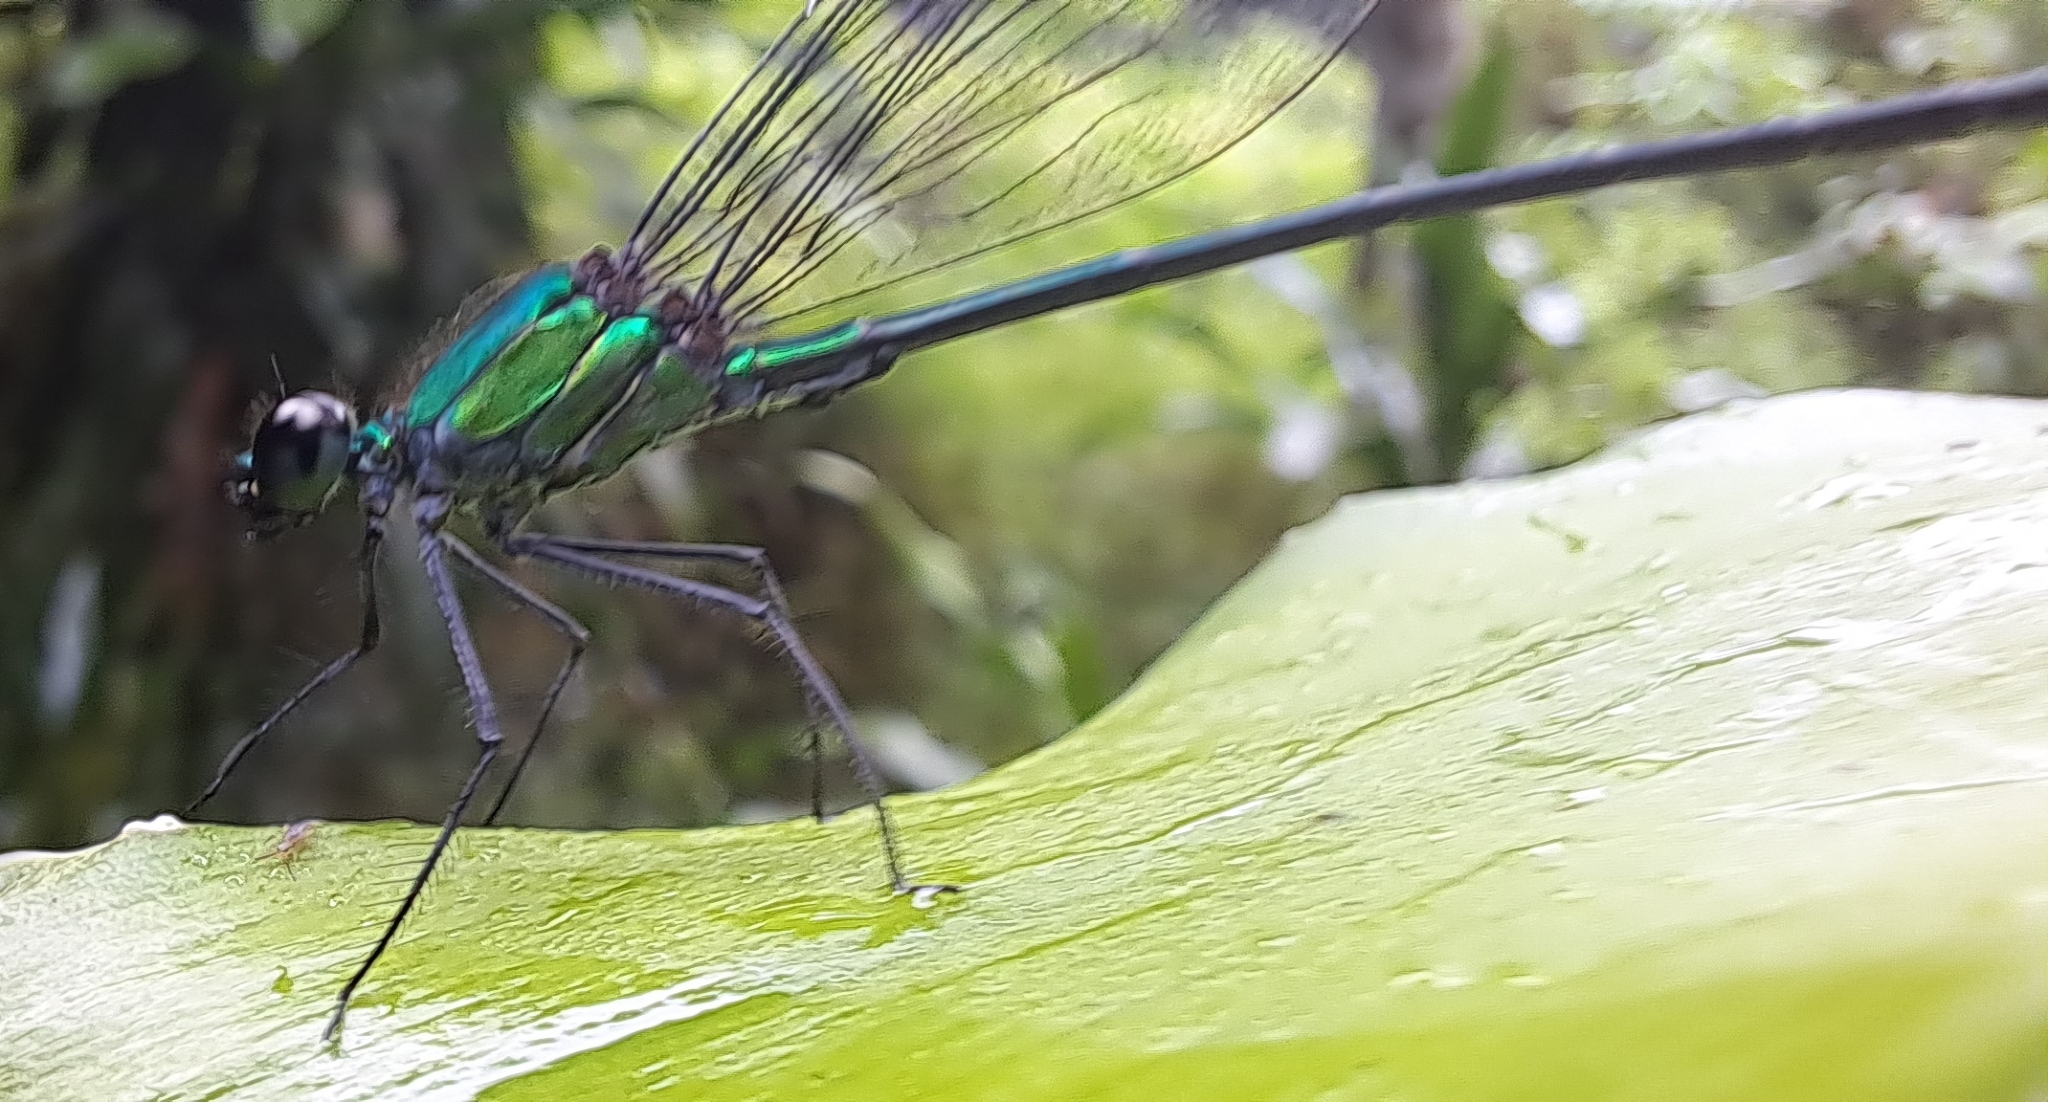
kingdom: Animalia
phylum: Arthropoda
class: Insecta
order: Odonata
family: Calopterygidae
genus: Vestalis
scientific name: Vestalis amethystina
